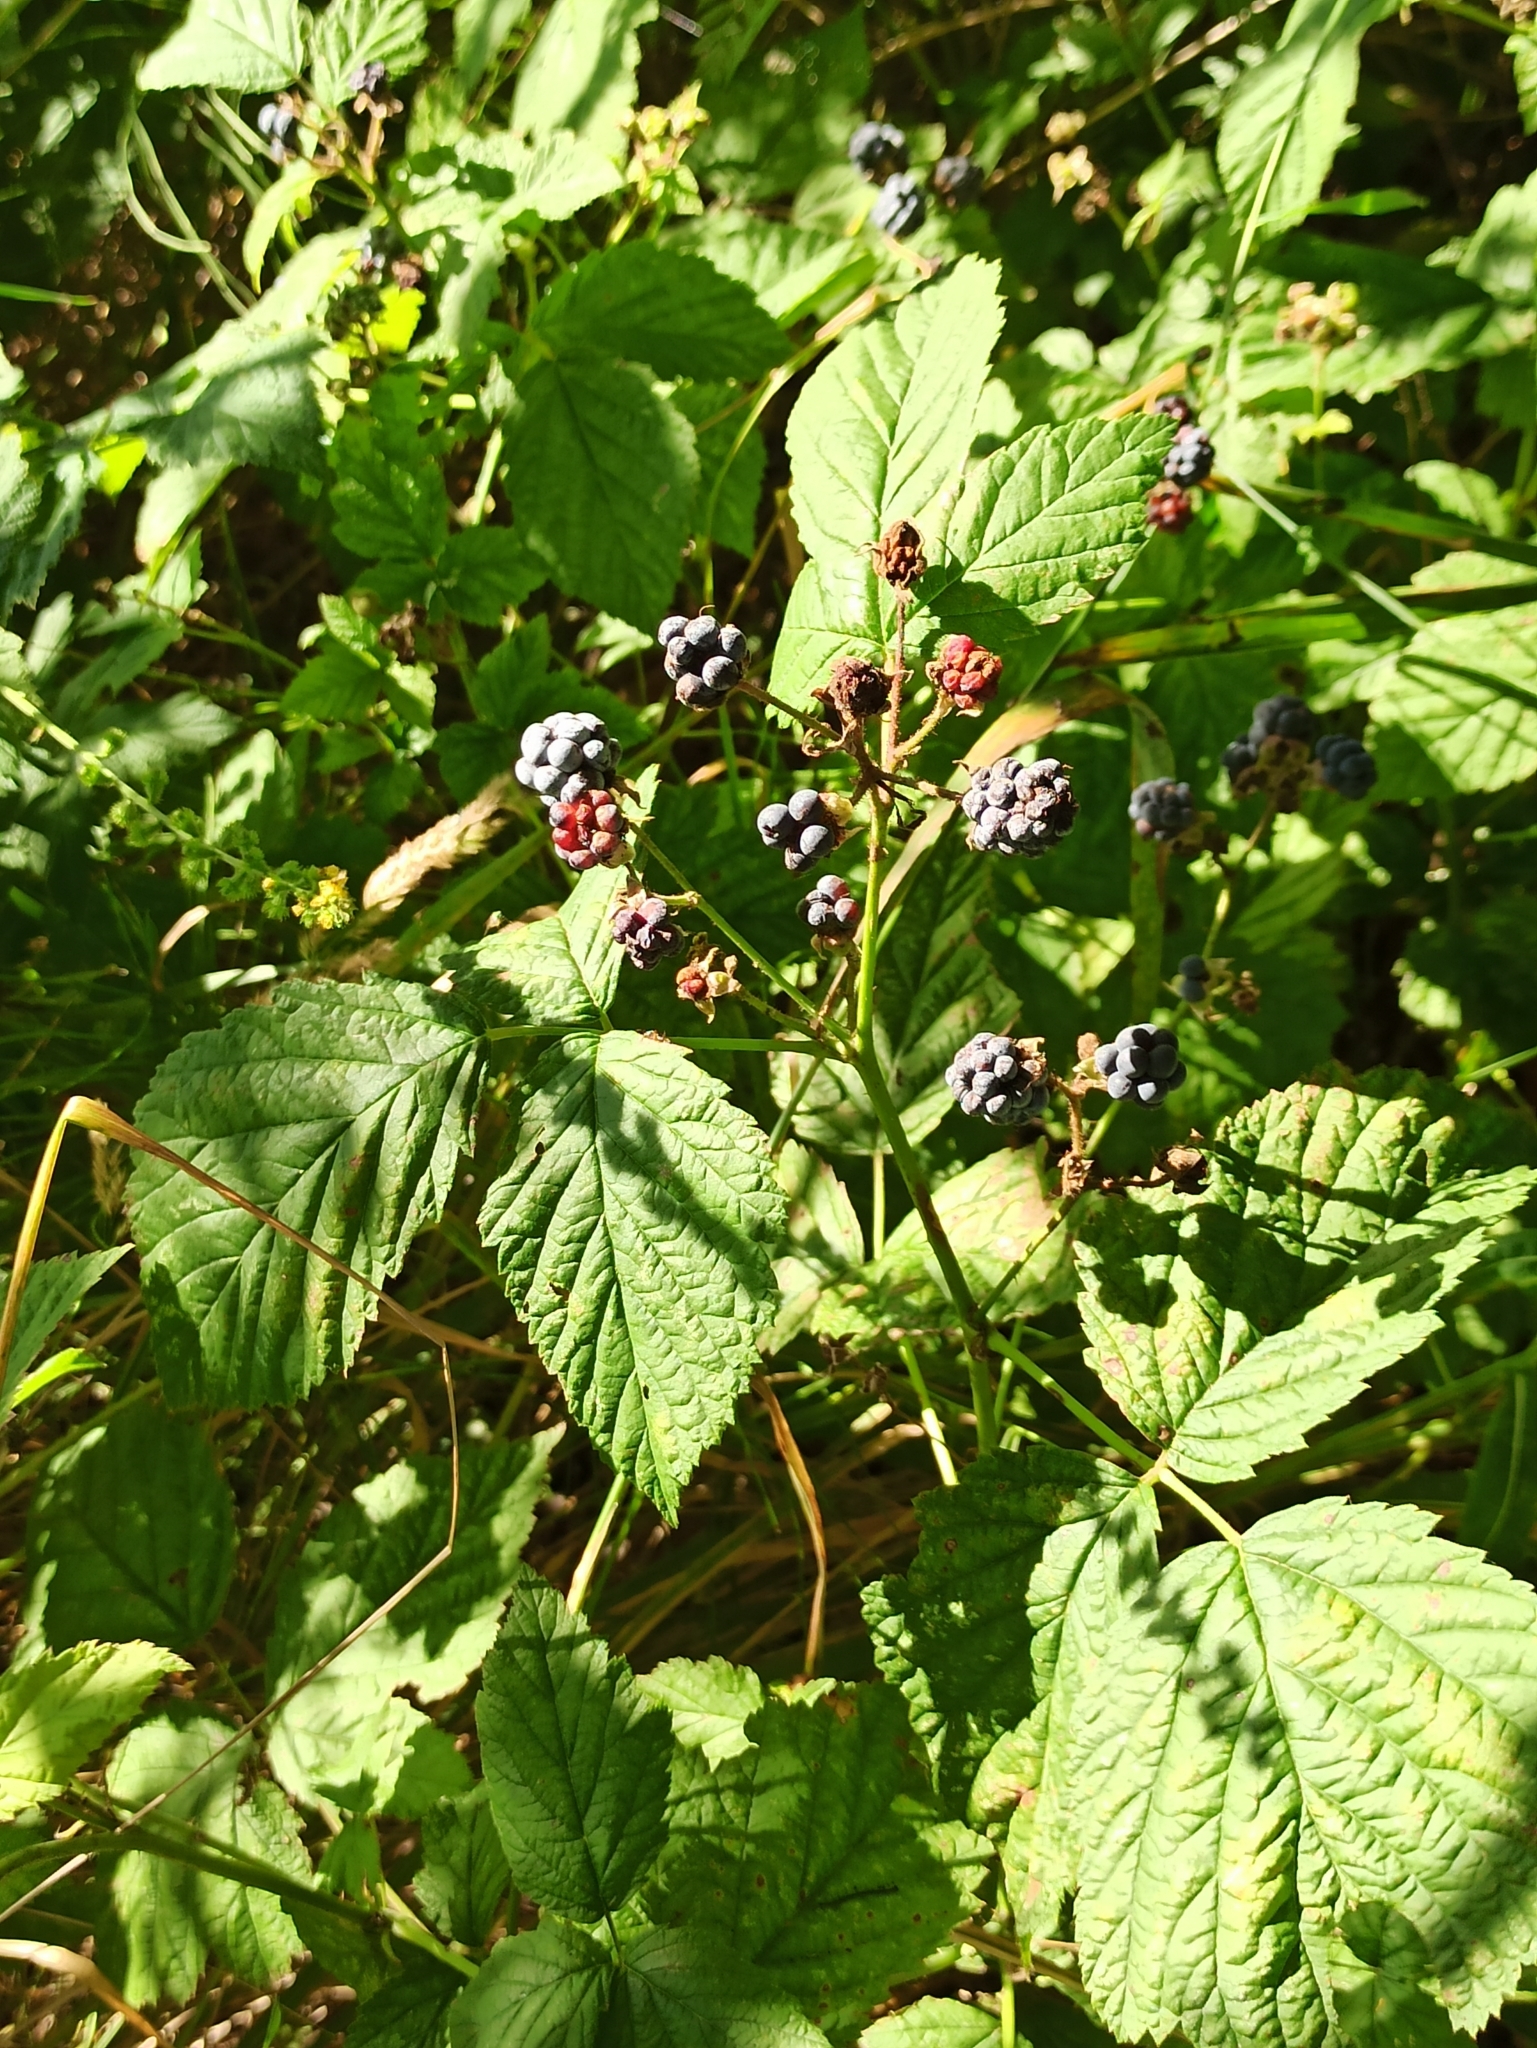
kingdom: Plantae
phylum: Tracheophyta
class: Magnoliopsida
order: Rosales
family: Rosaceae
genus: Rubus
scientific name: Rubus caesius
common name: Dewberry
